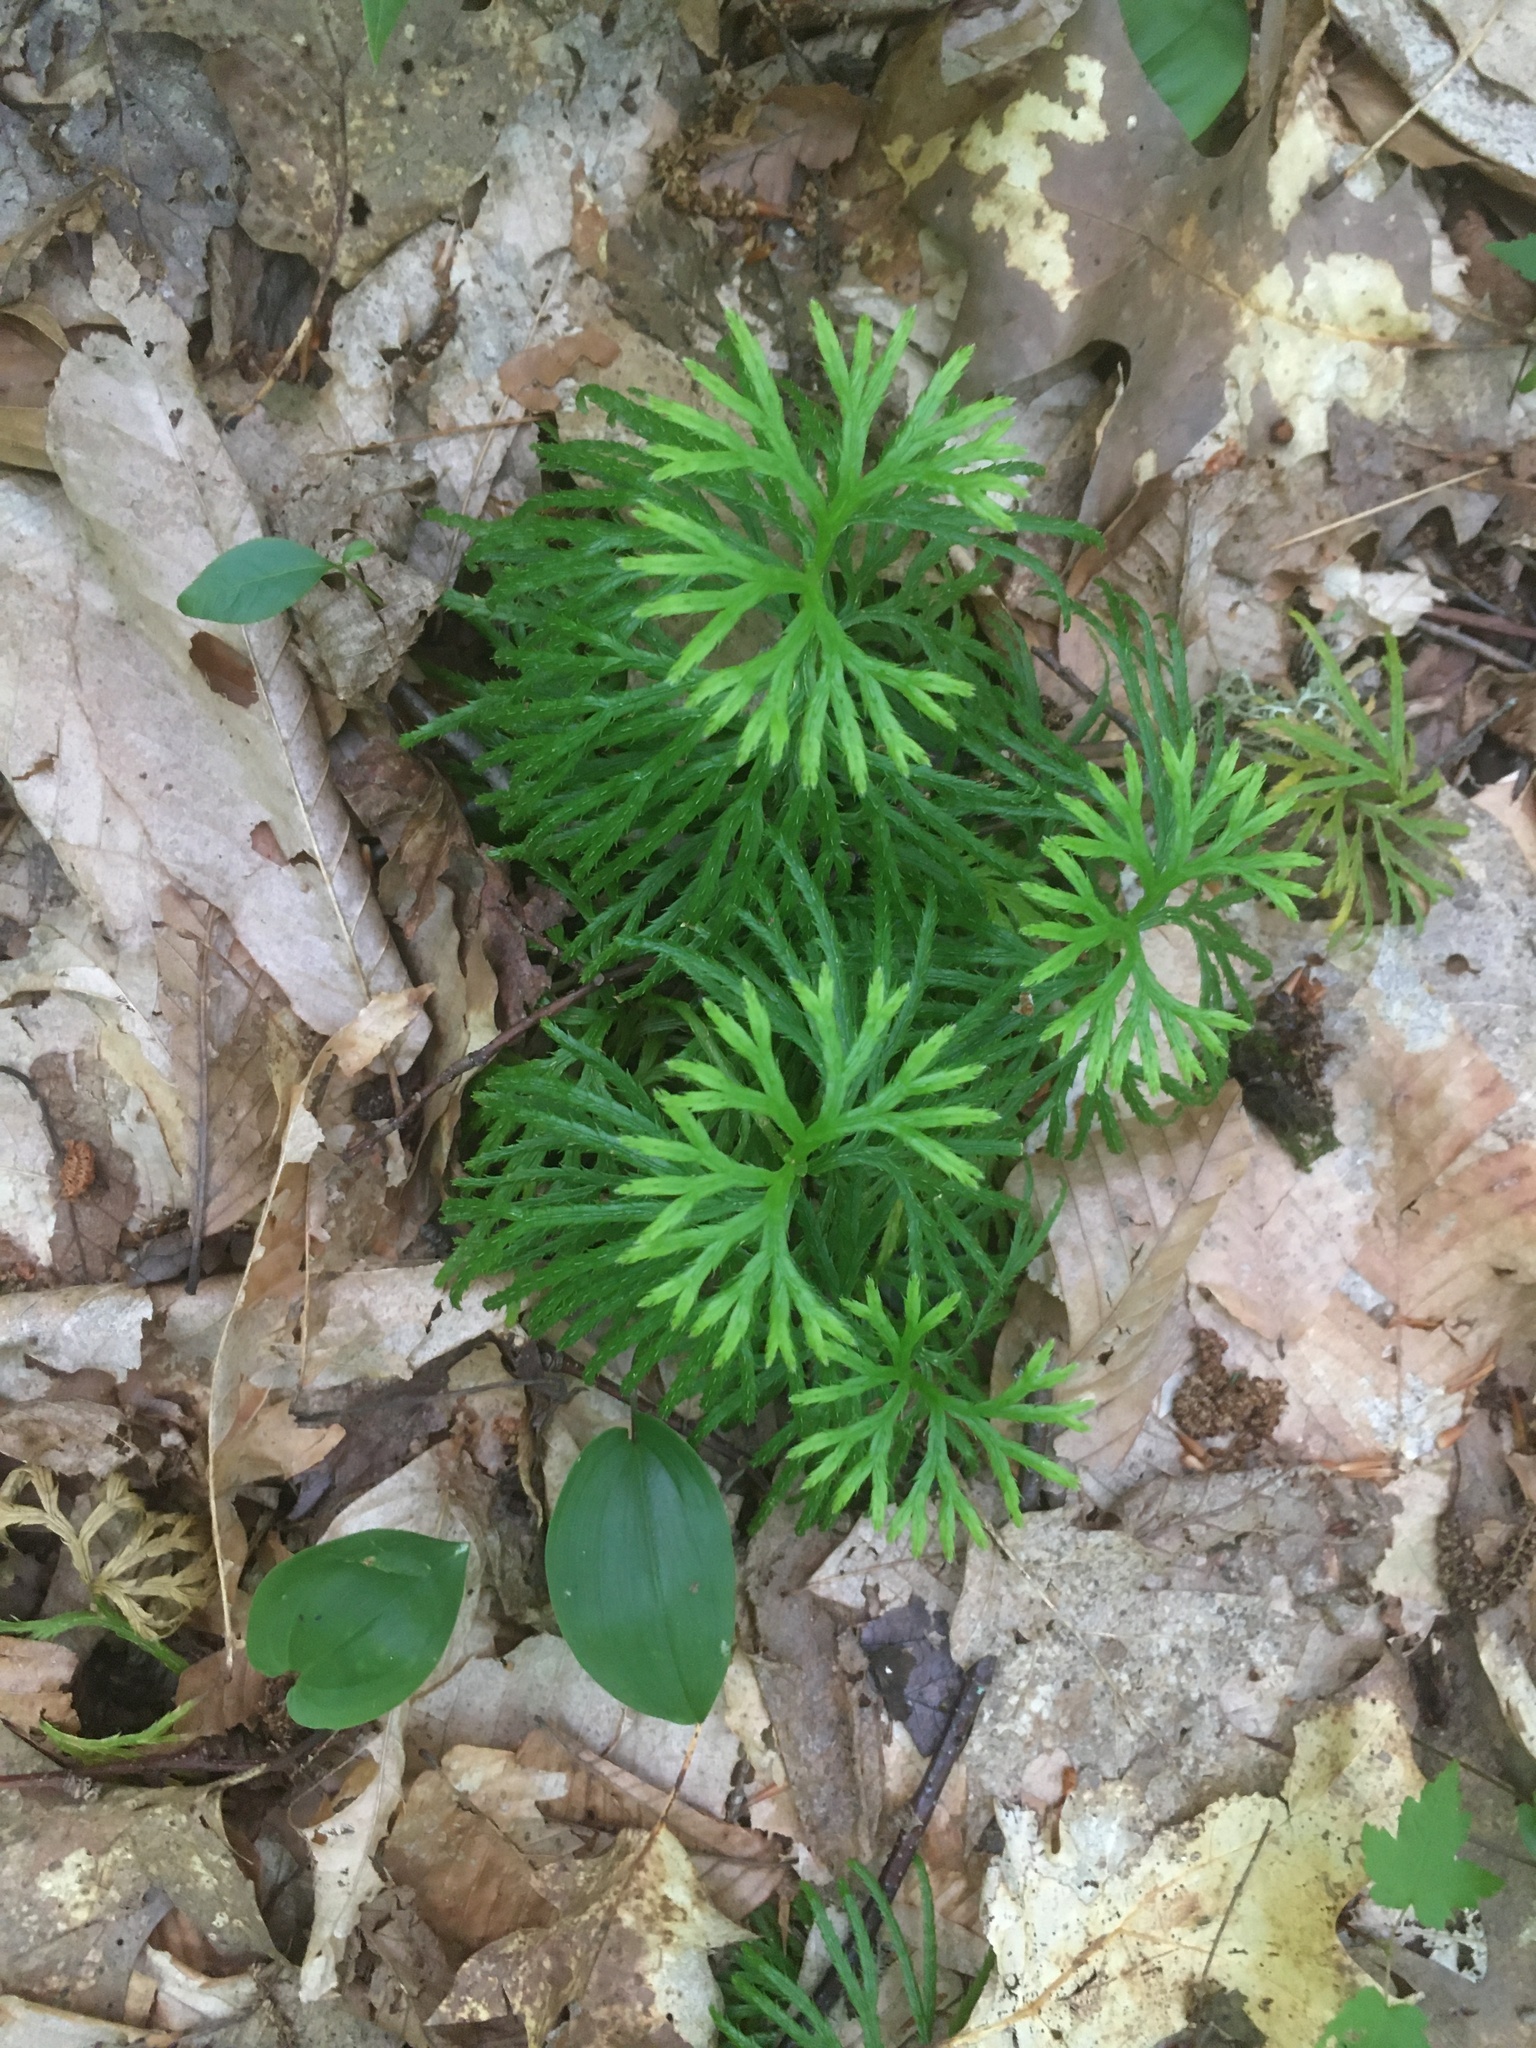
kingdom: Plantae
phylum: Tracheophyta
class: Lycopodiopsida
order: Lycopodiales
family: Lycopodiaceae
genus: Diphasiastrum
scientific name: Diphasiastrum digitatum
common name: Southern running-pine
